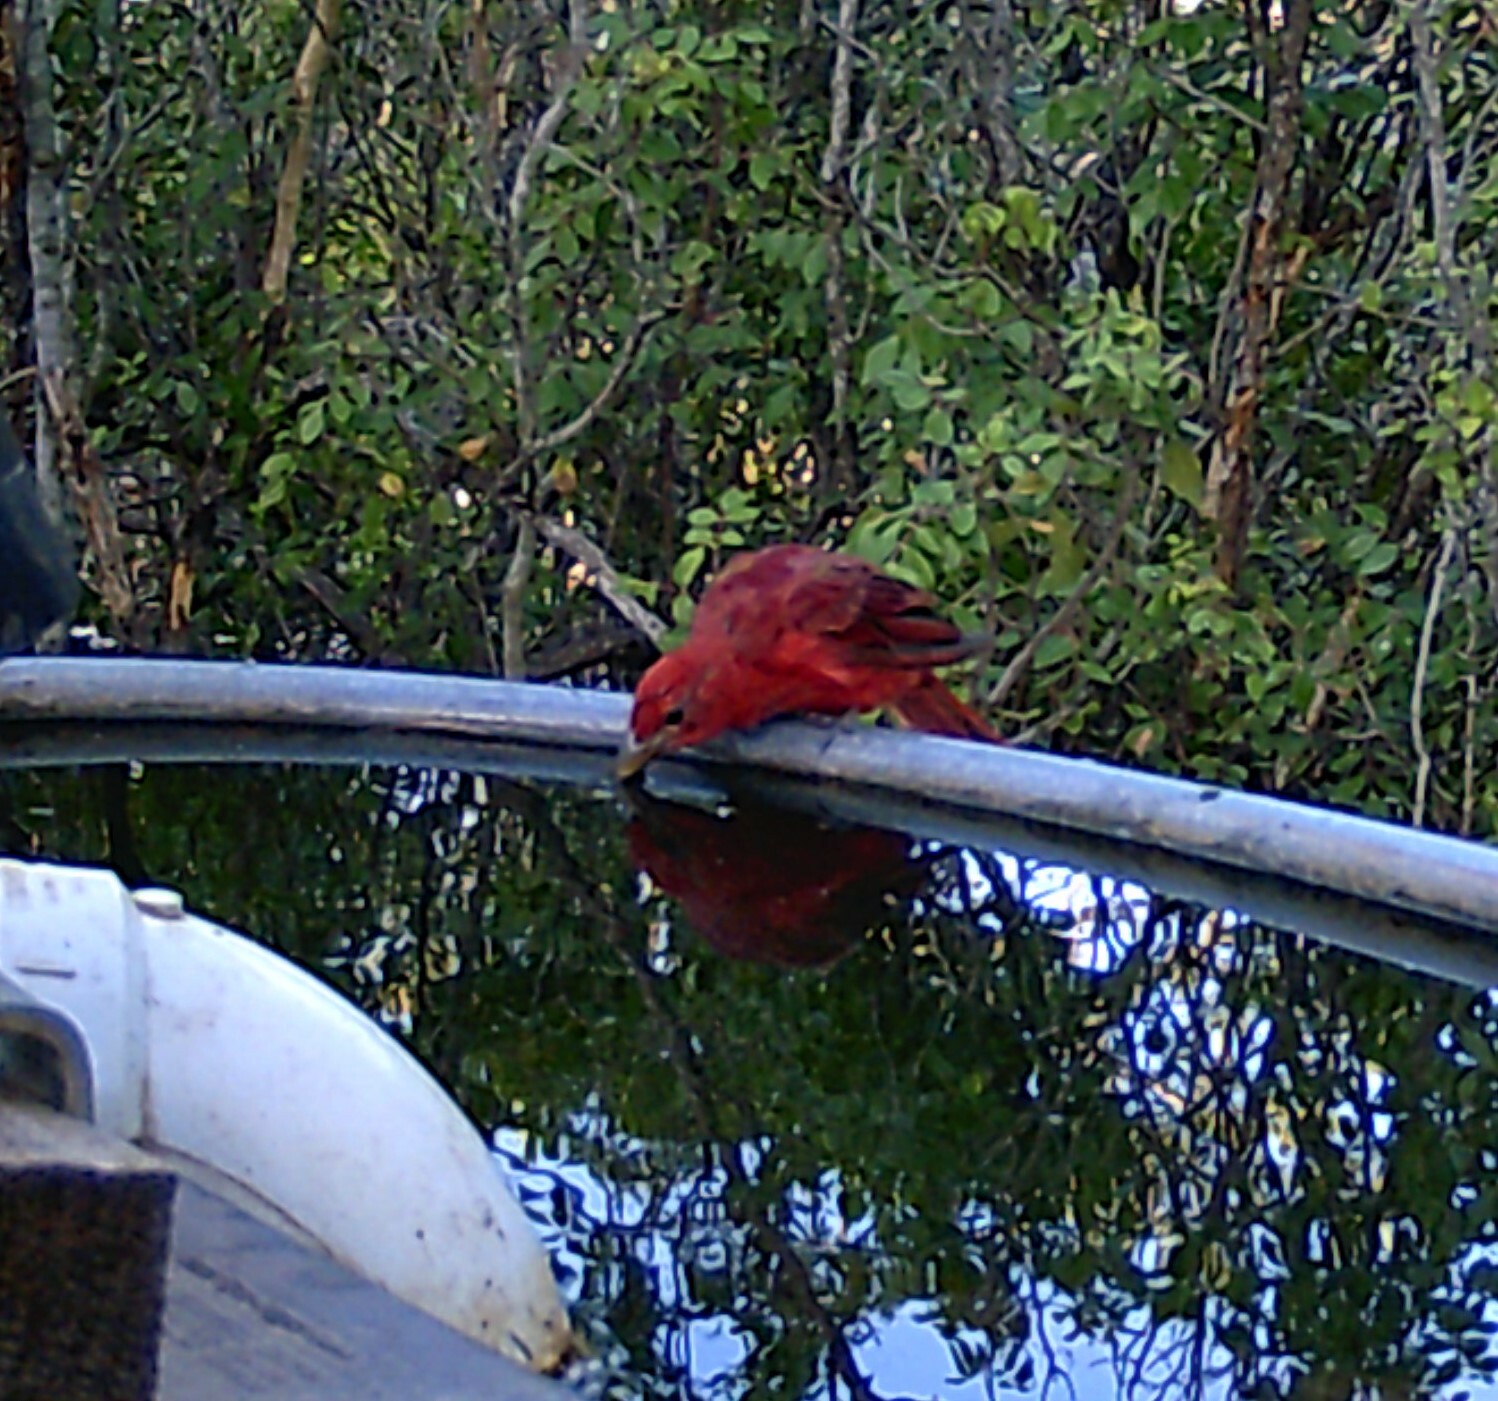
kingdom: Animalia
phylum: Chordata
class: Aves
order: Passeriformes
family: Cardinalidae
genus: Piranga
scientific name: Piranga rubra
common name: Summer tanager
